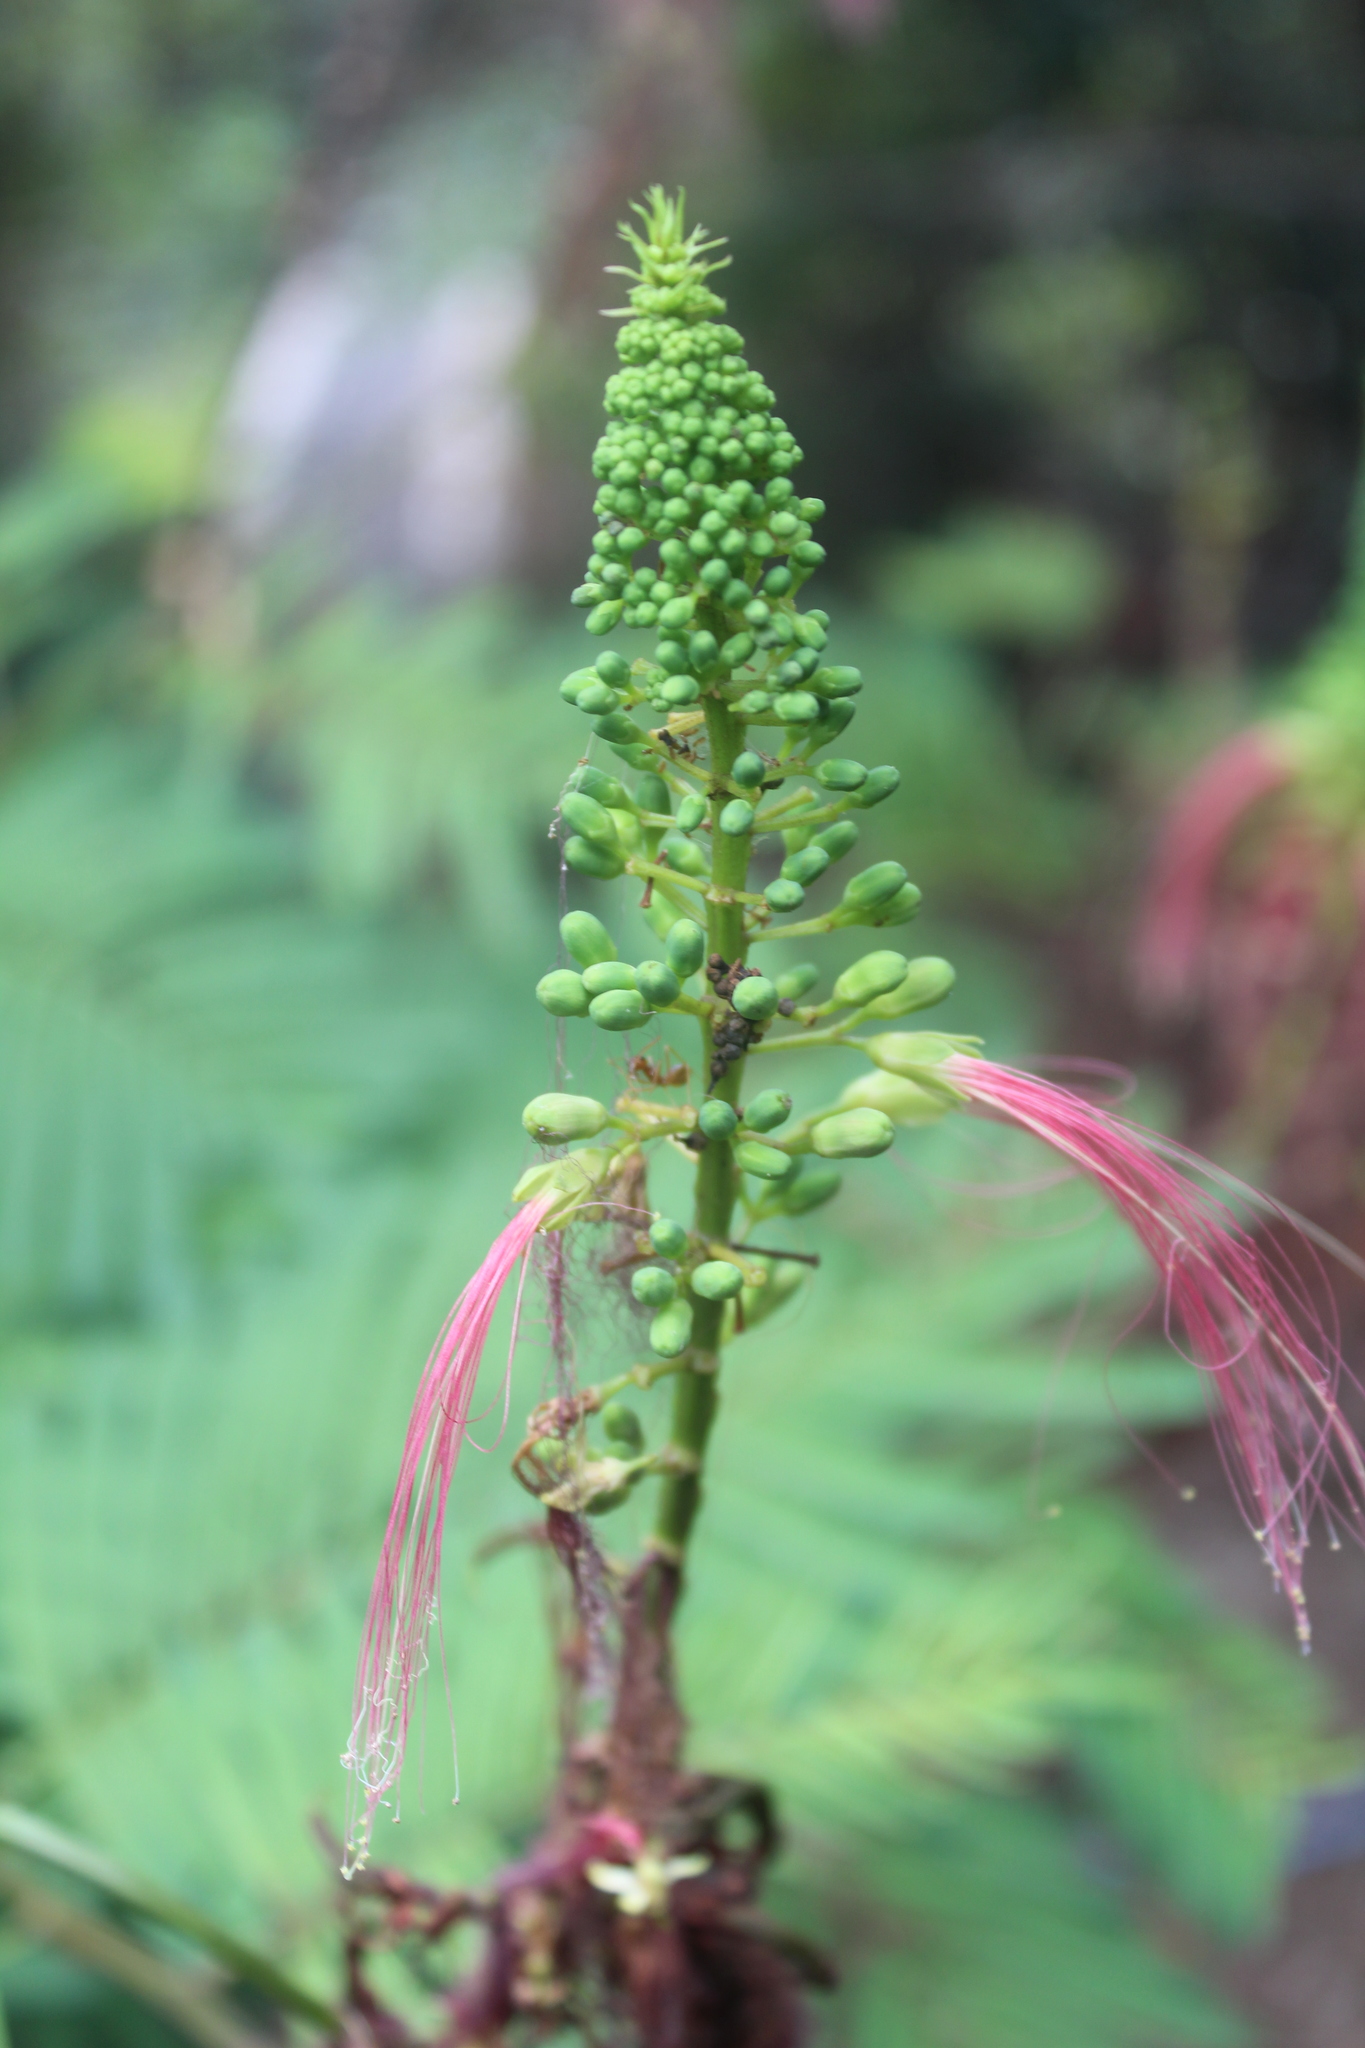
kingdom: Plantae
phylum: Tracheophyta
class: Magnoliopsida
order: Fabales
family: Fabaceae
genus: Calliandra
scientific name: Calliandra houstoniana
